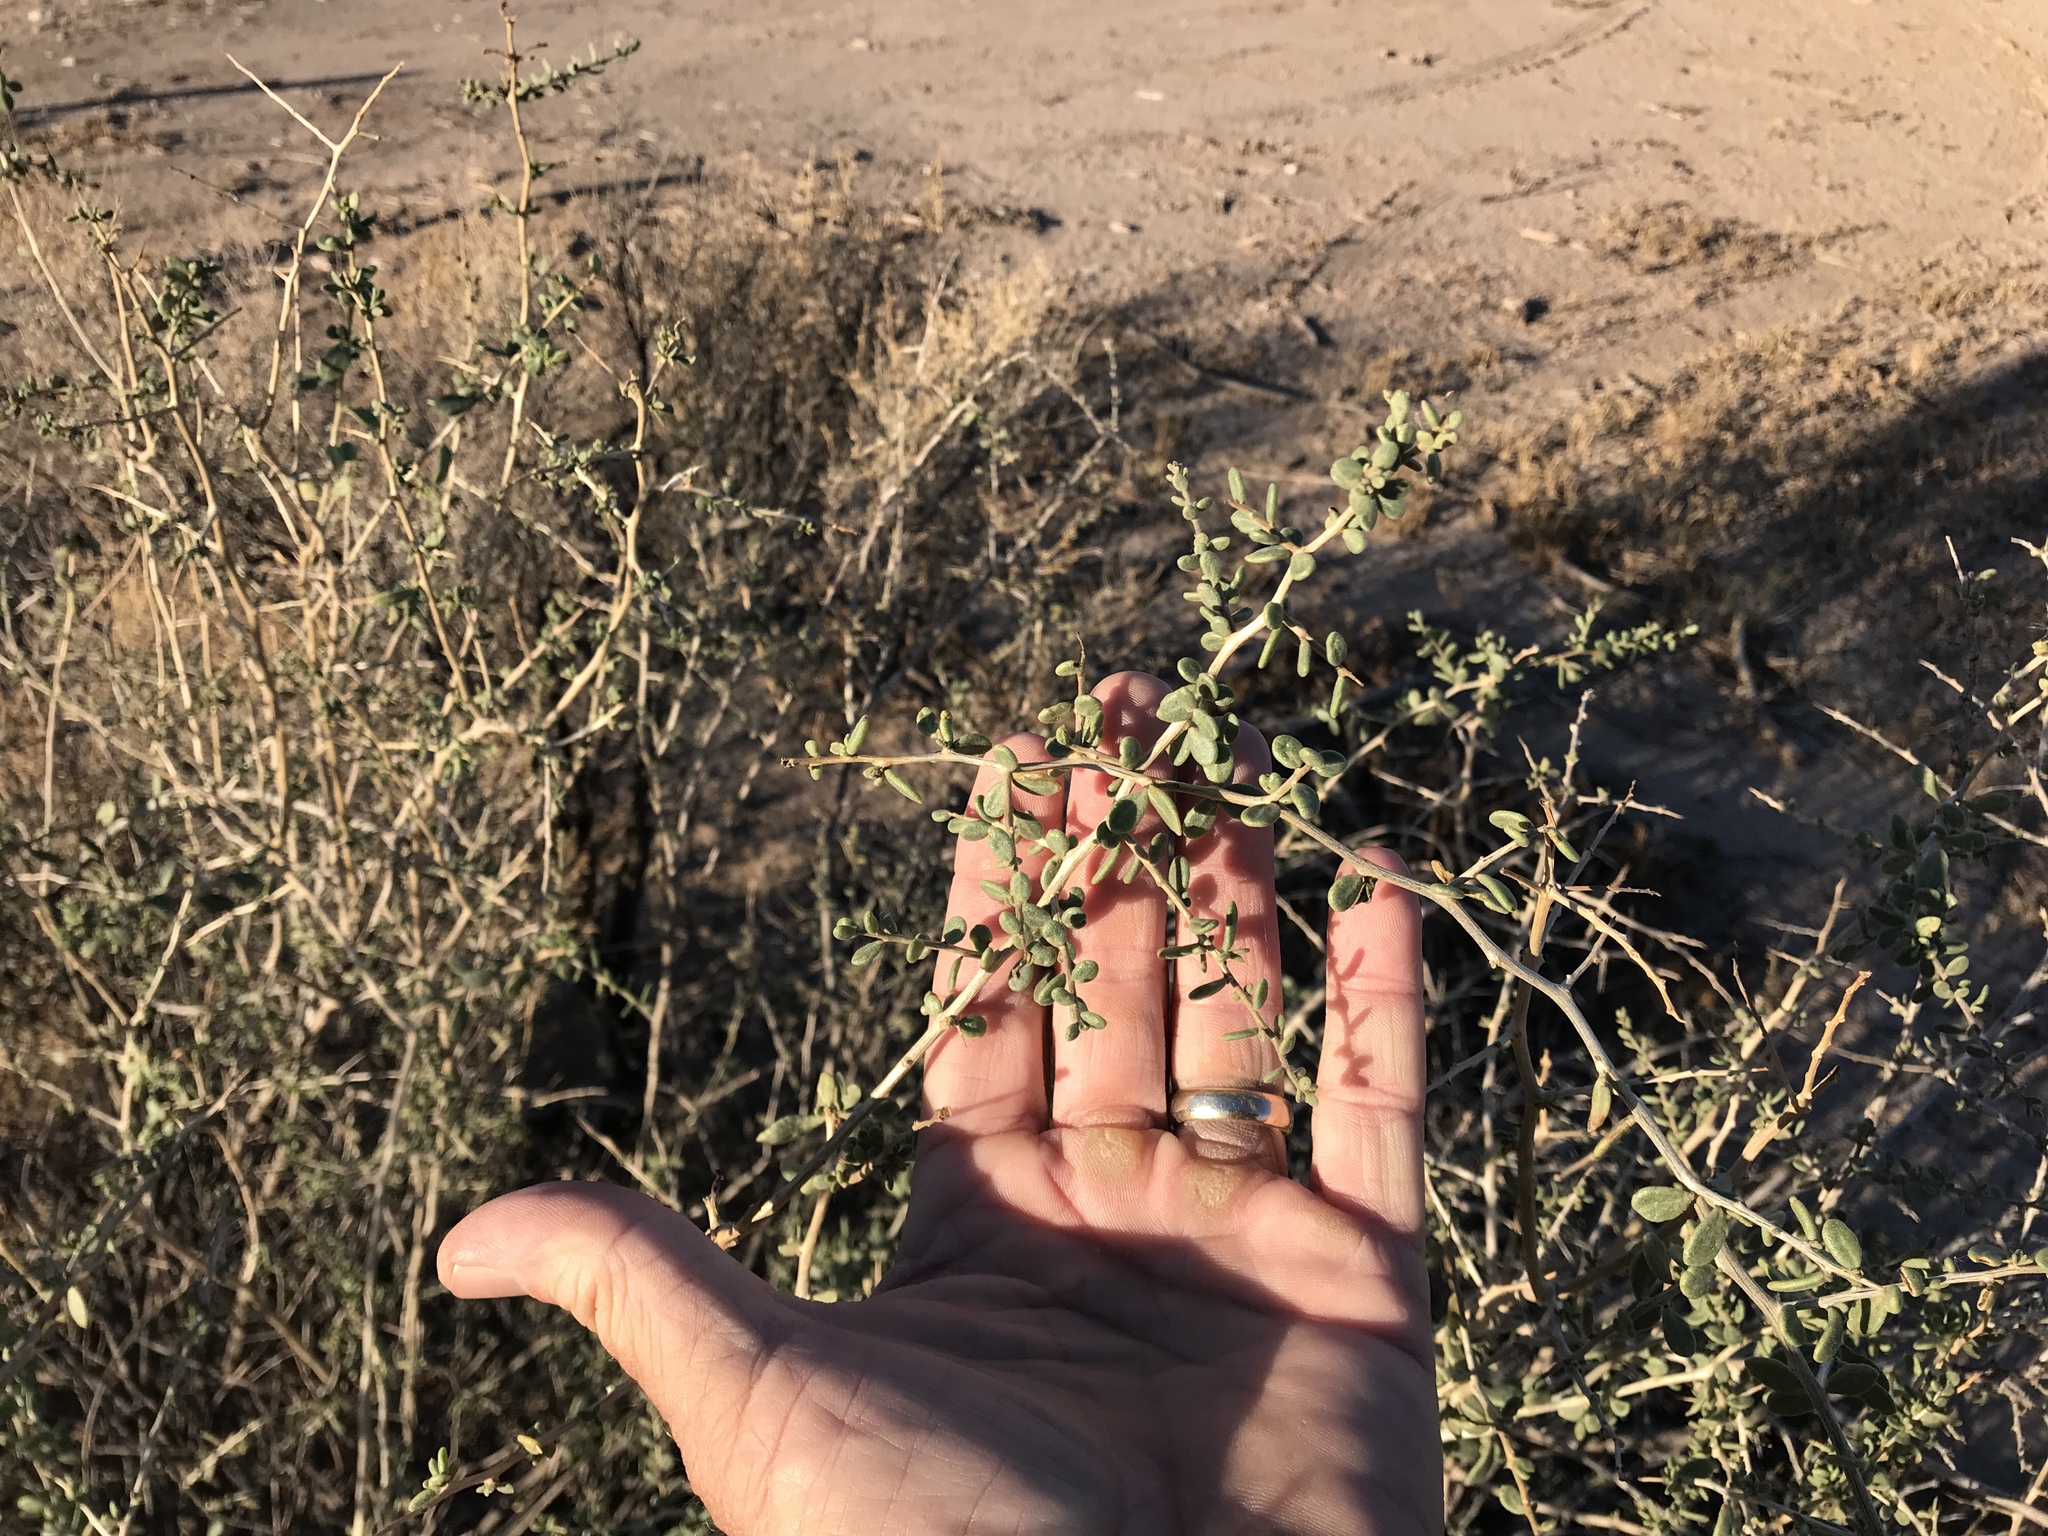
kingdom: Plantae
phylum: Tracheophyta
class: Magnoliopsida
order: Solanales
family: Solanaceae
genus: Lycium
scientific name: Lycium exsertum
